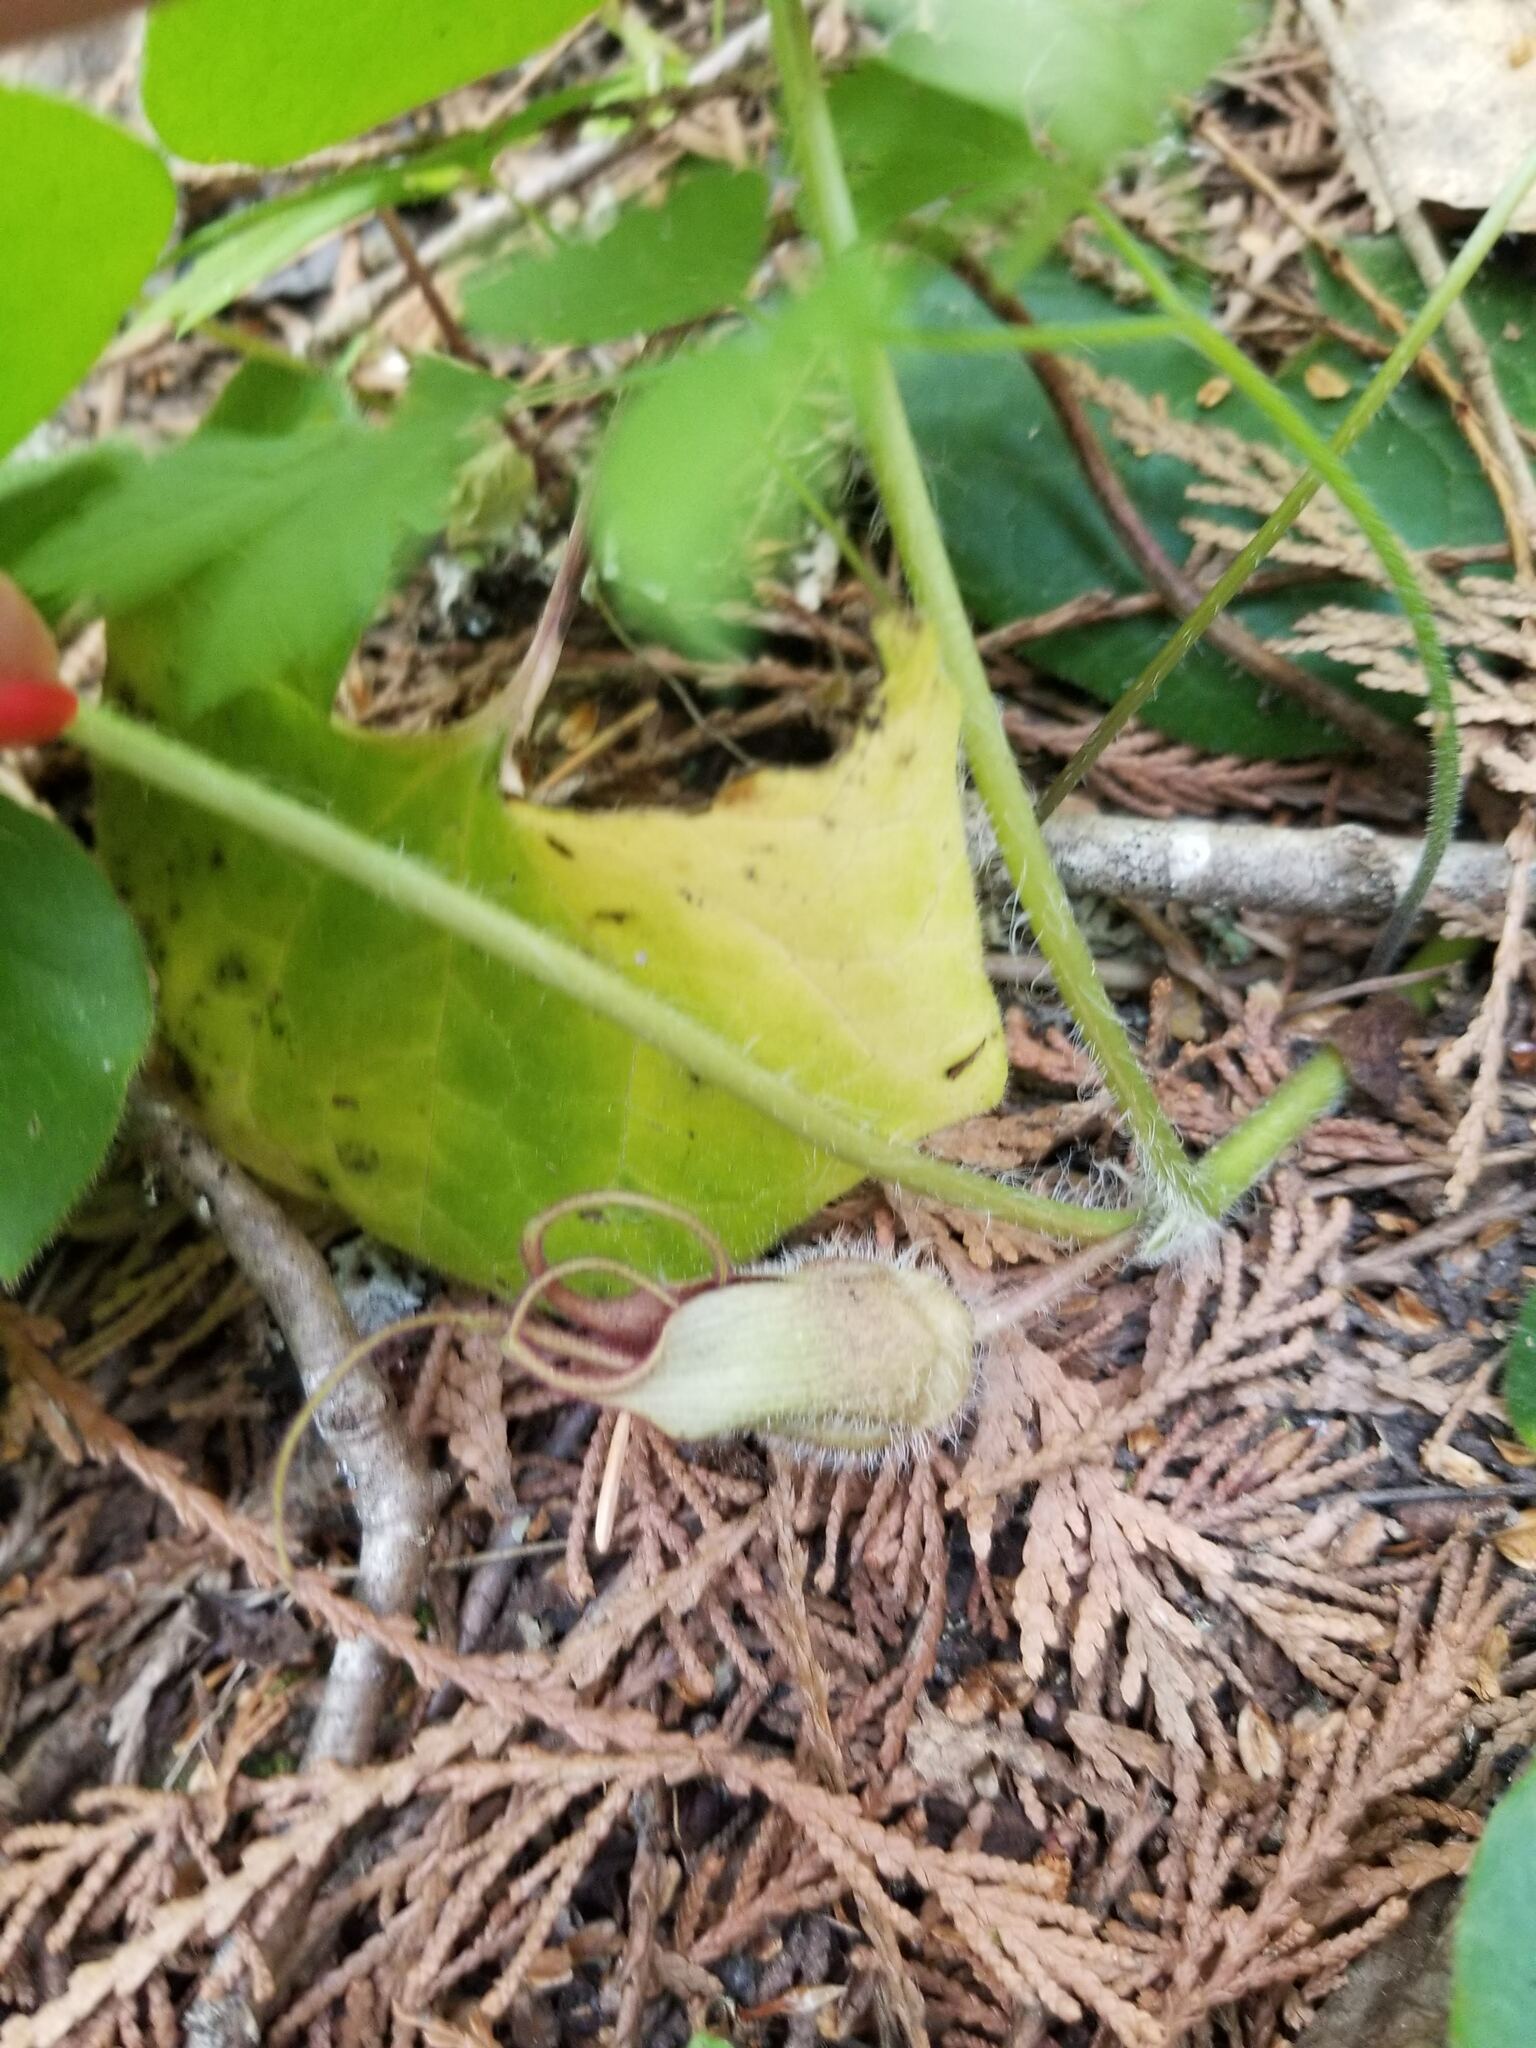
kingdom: Plantae
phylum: Tracheophyta
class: Magnoliopsida
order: Piperales
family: Aristolochiaceae
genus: Asarum
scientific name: Asarum caudatum
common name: Wild ginger
